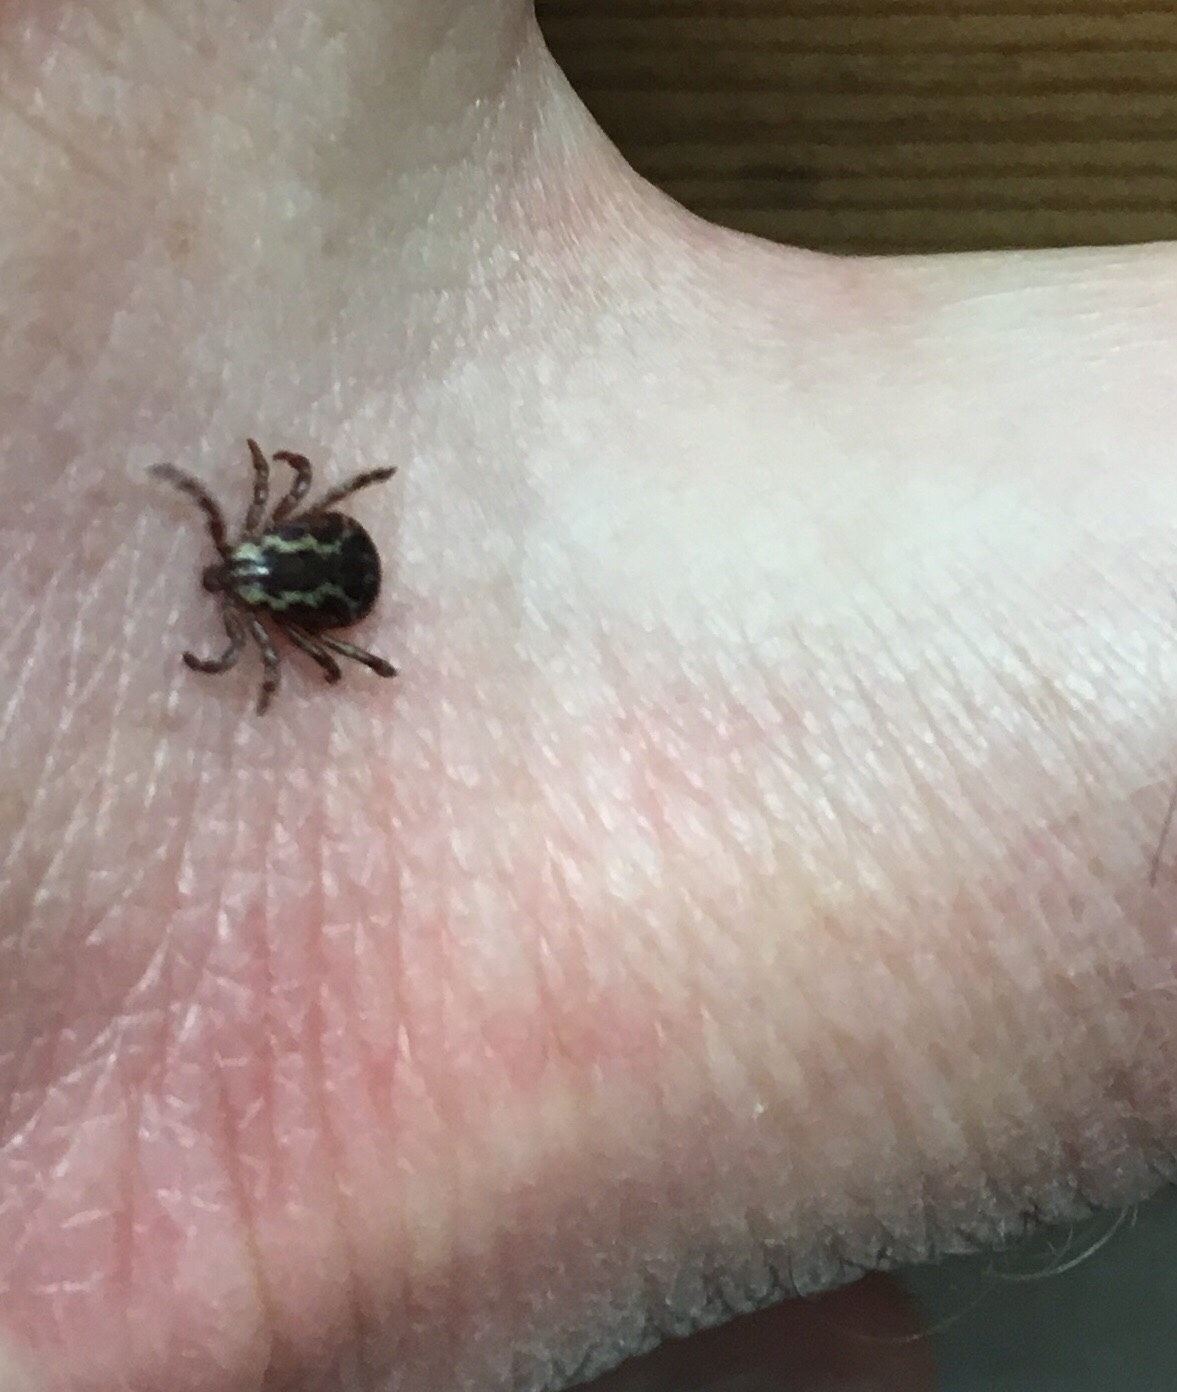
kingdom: Animalia
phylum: Arthropoda
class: Arachnida
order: Ixodida
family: Ixodidae
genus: Dermacentor
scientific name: Dermacentor variabilis
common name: American dog tick
